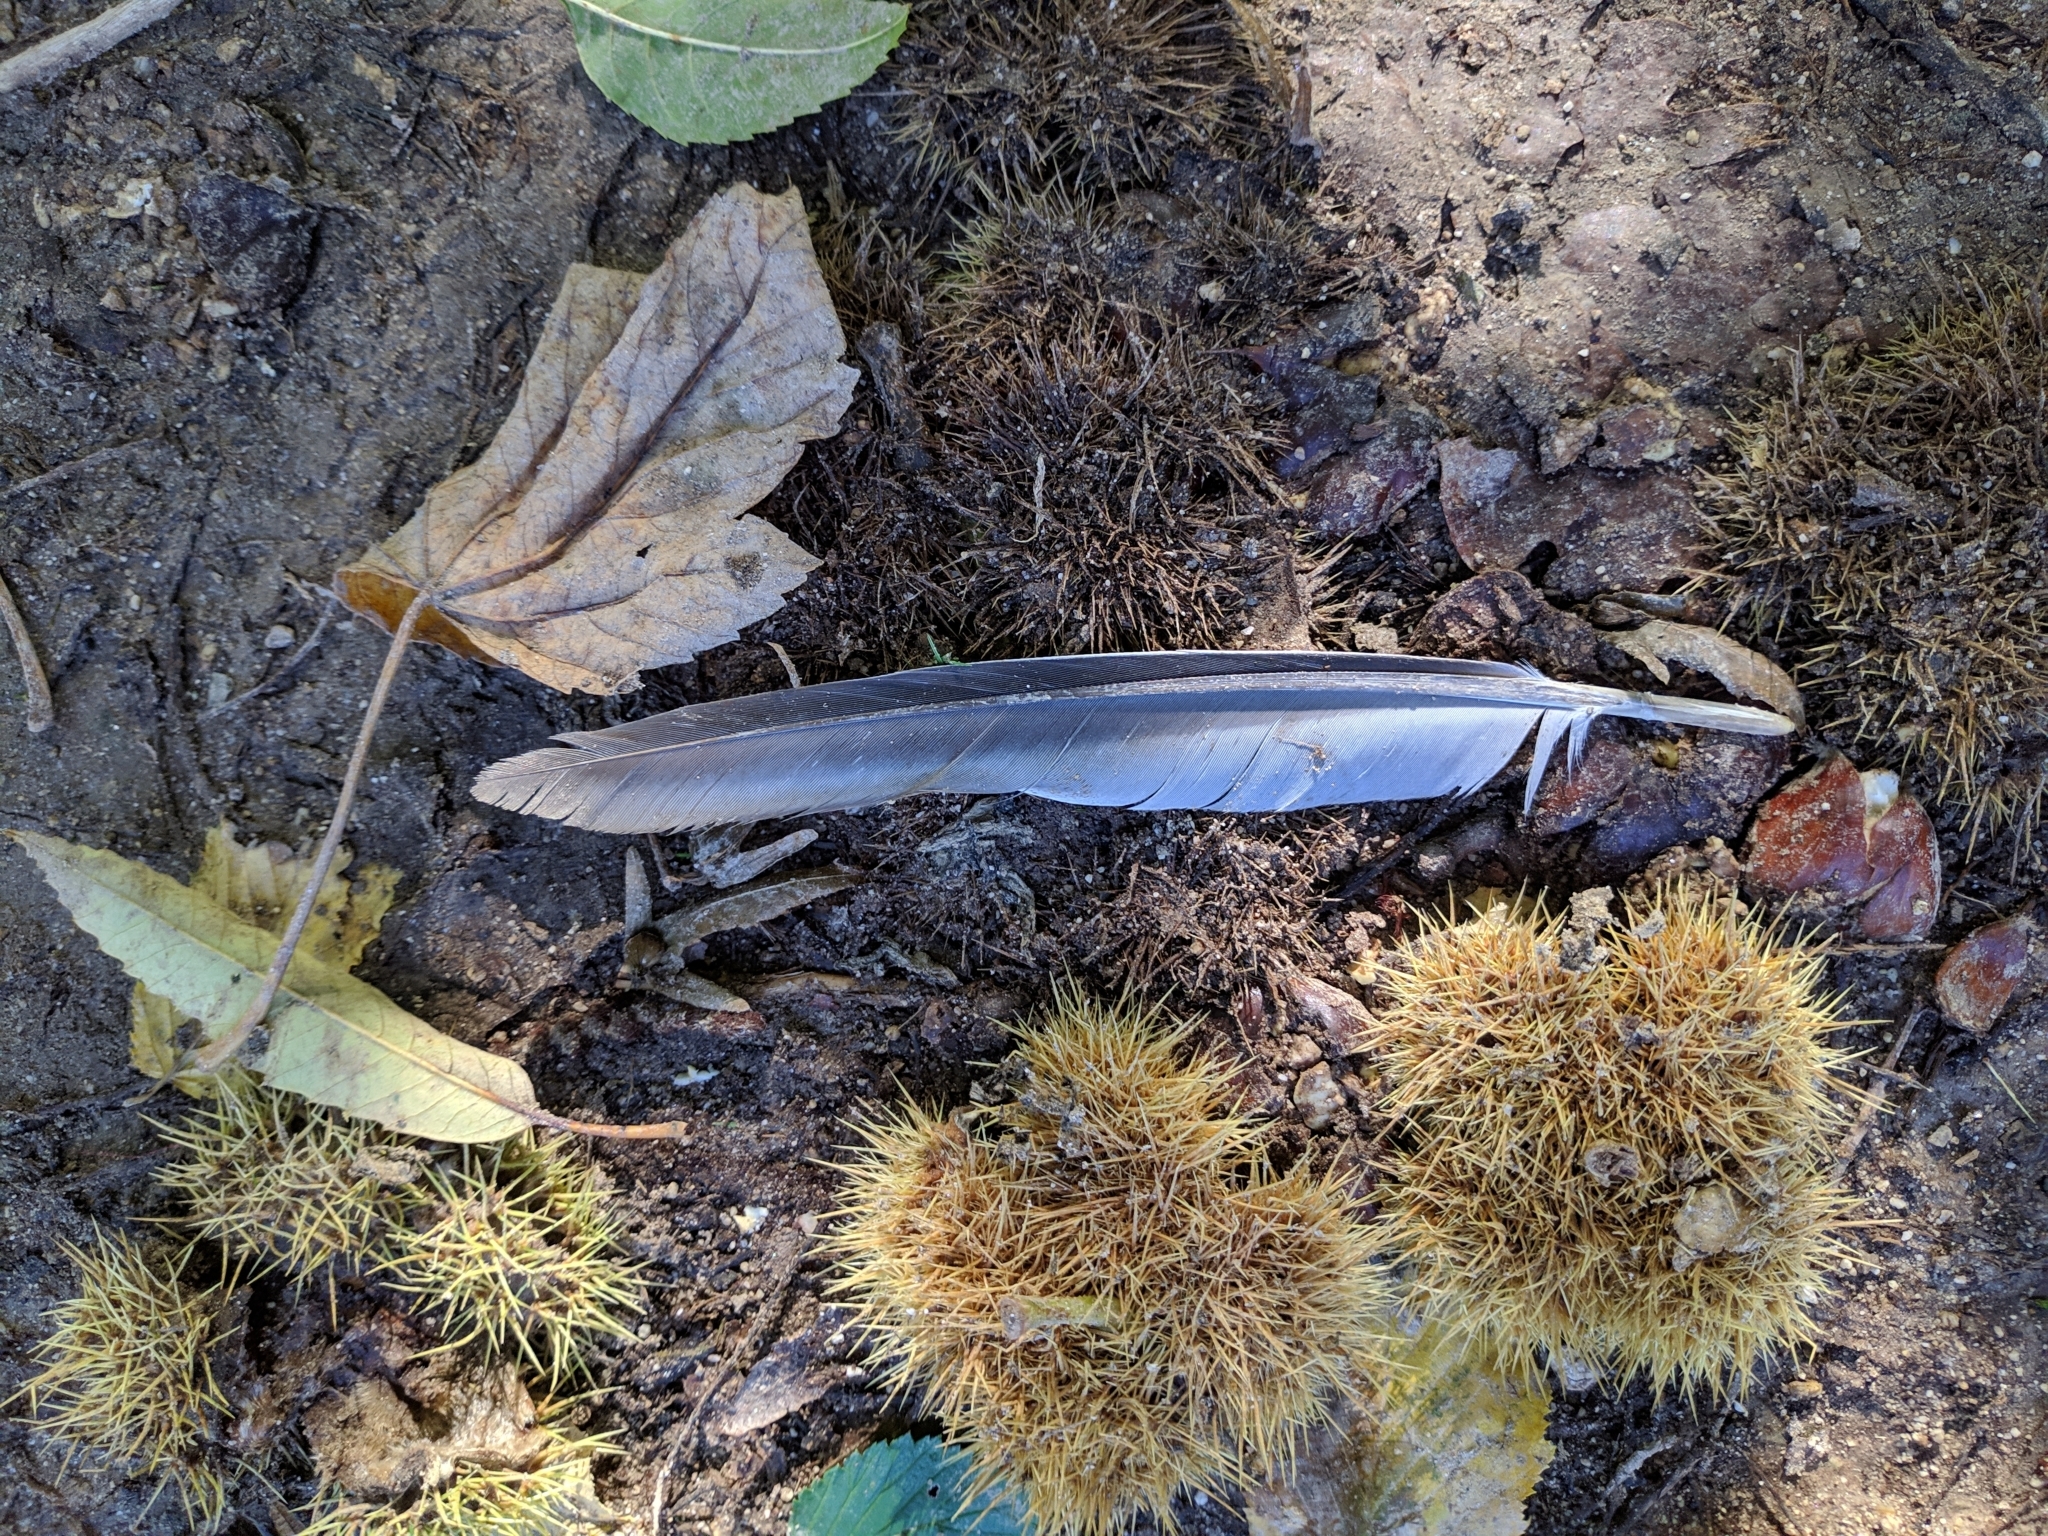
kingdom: Animalia
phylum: Chordata
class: Aves
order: Columbiformes
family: Columbidae
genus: Columba
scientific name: Columba palumbus
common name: Common wood pigeon
